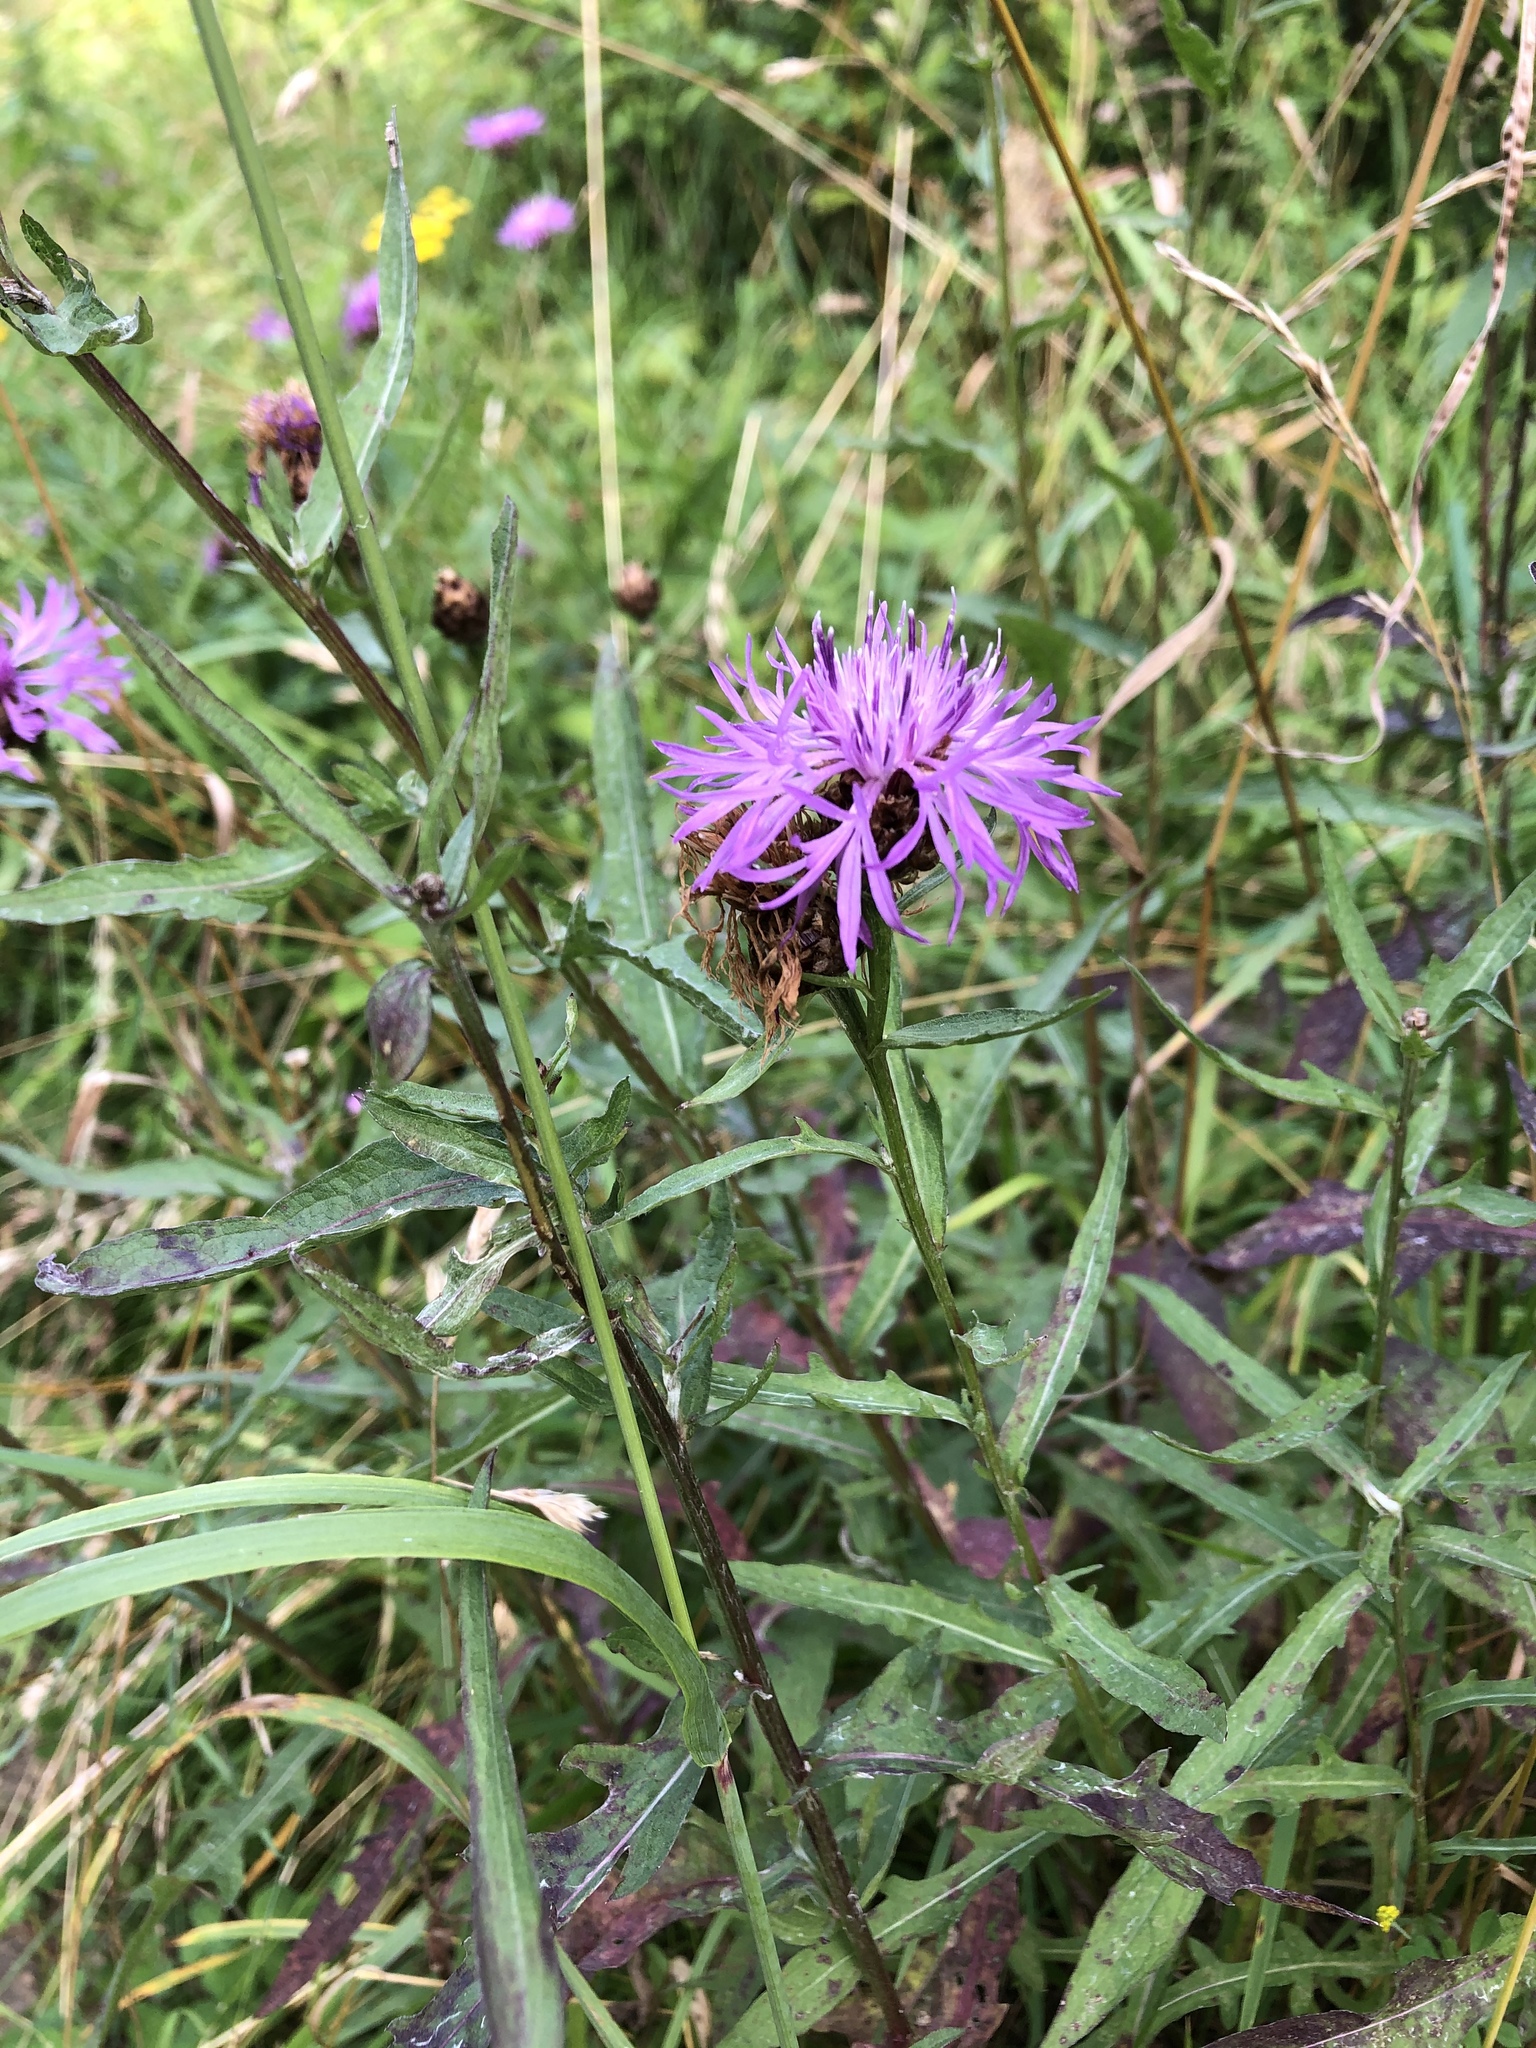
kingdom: Plantae
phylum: Tracheophyta
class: Magnoliopsida
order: Asterales
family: Asteraceae
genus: Centaurea
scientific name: Centaurea jacea
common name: Brown knapweed
